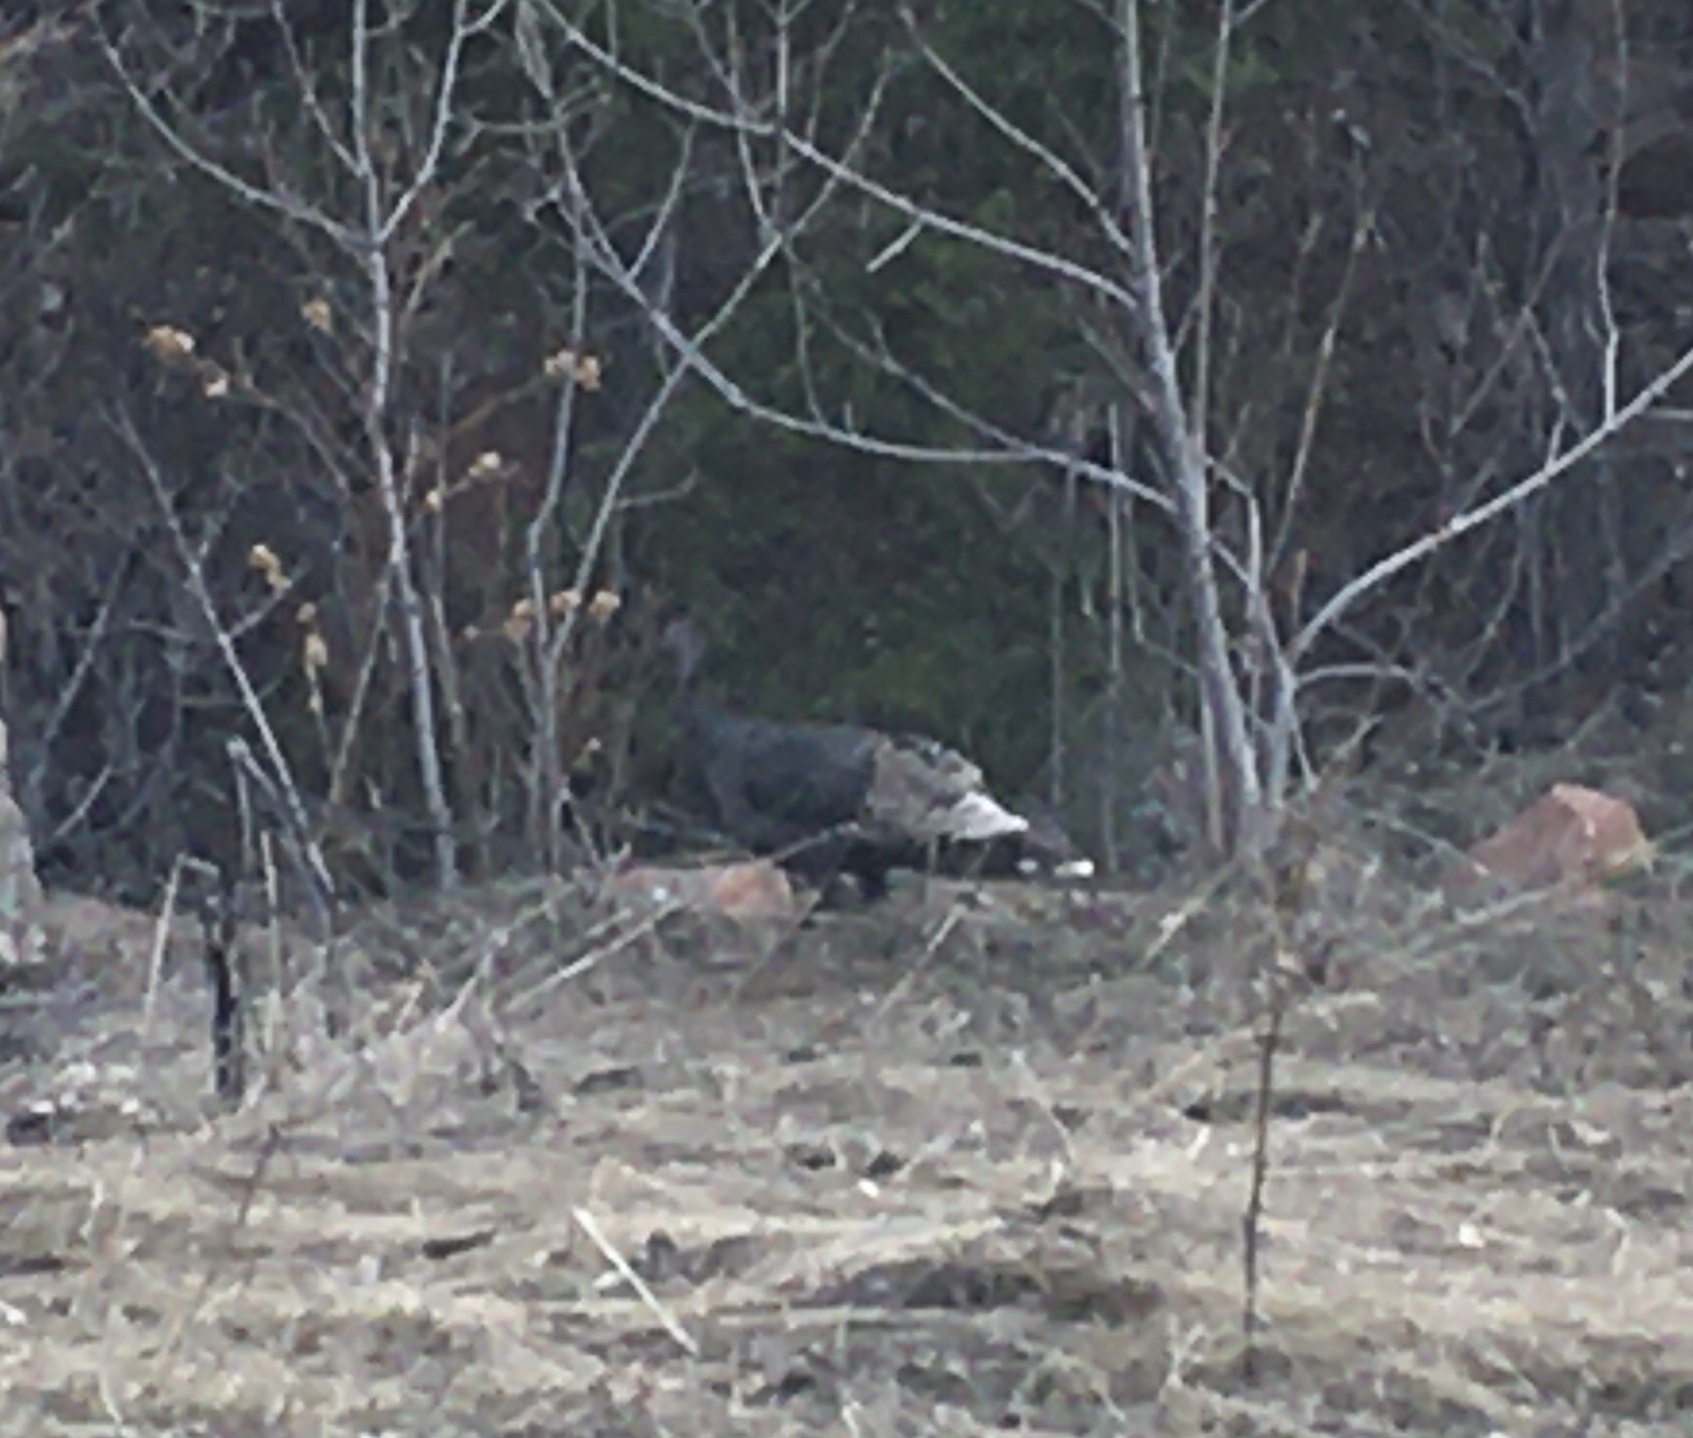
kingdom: Animalia
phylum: Chordata
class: Aves
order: Galliformes
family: Phasianidae
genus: Meleagris
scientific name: Meleagris gallopavo
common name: Wild turkey
